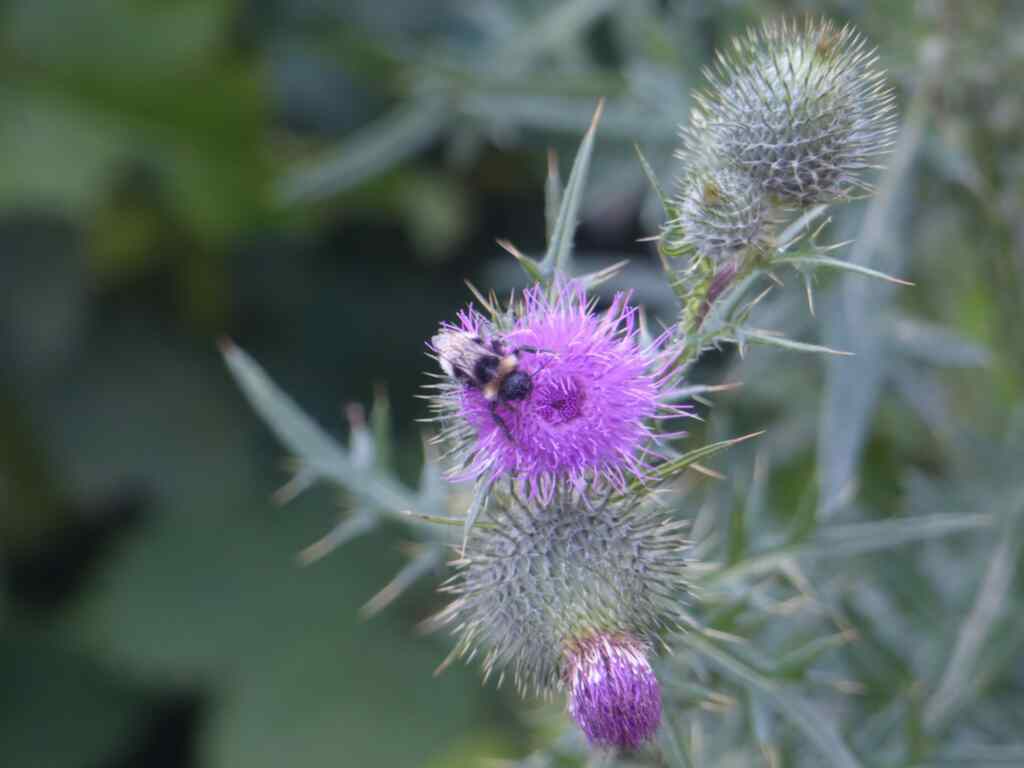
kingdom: Plantae
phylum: Tracheophyta
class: Magnoliopsida
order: Asterales
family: Asteraceae
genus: Cirsium
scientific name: Cirsium vulgare
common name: Bull thistle
